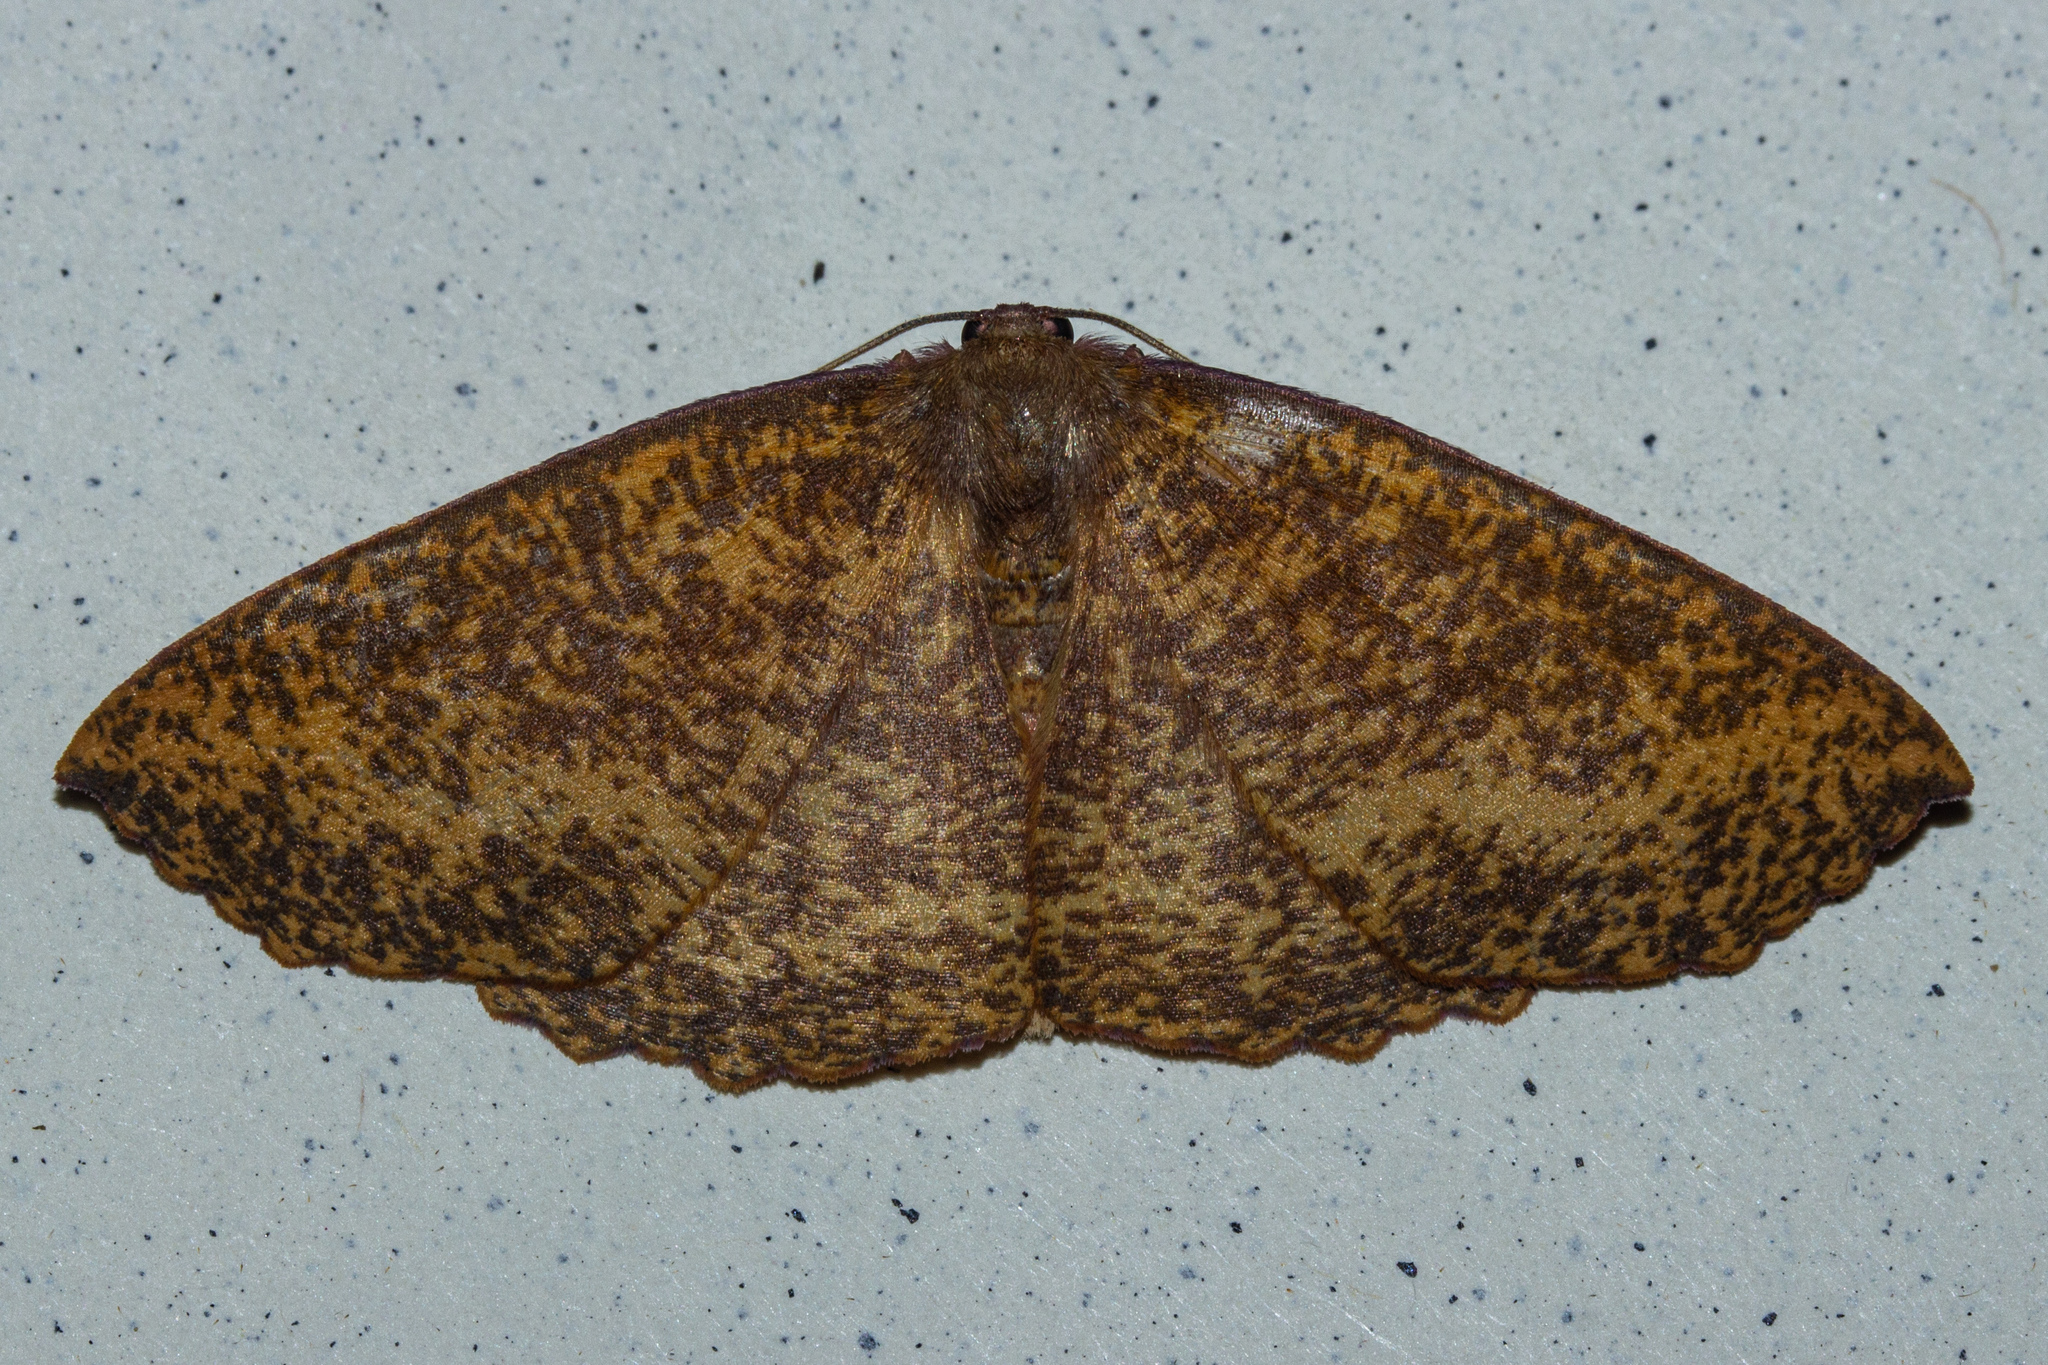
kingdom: Animalia
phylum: Arthropoda
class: Insecta
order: Lepidoptera
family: Geometridae
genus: Xyridacma
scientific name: Xyridacma alectoraria
